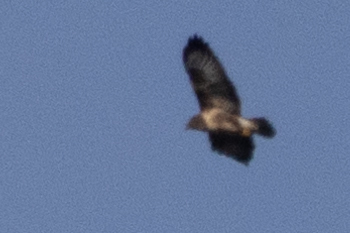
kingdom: Animalia
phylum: Chordata
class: Aves
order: Accipitriformes
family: Accipitridae
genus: Buteo
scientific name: Buteo buteo
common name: Common buzzard
